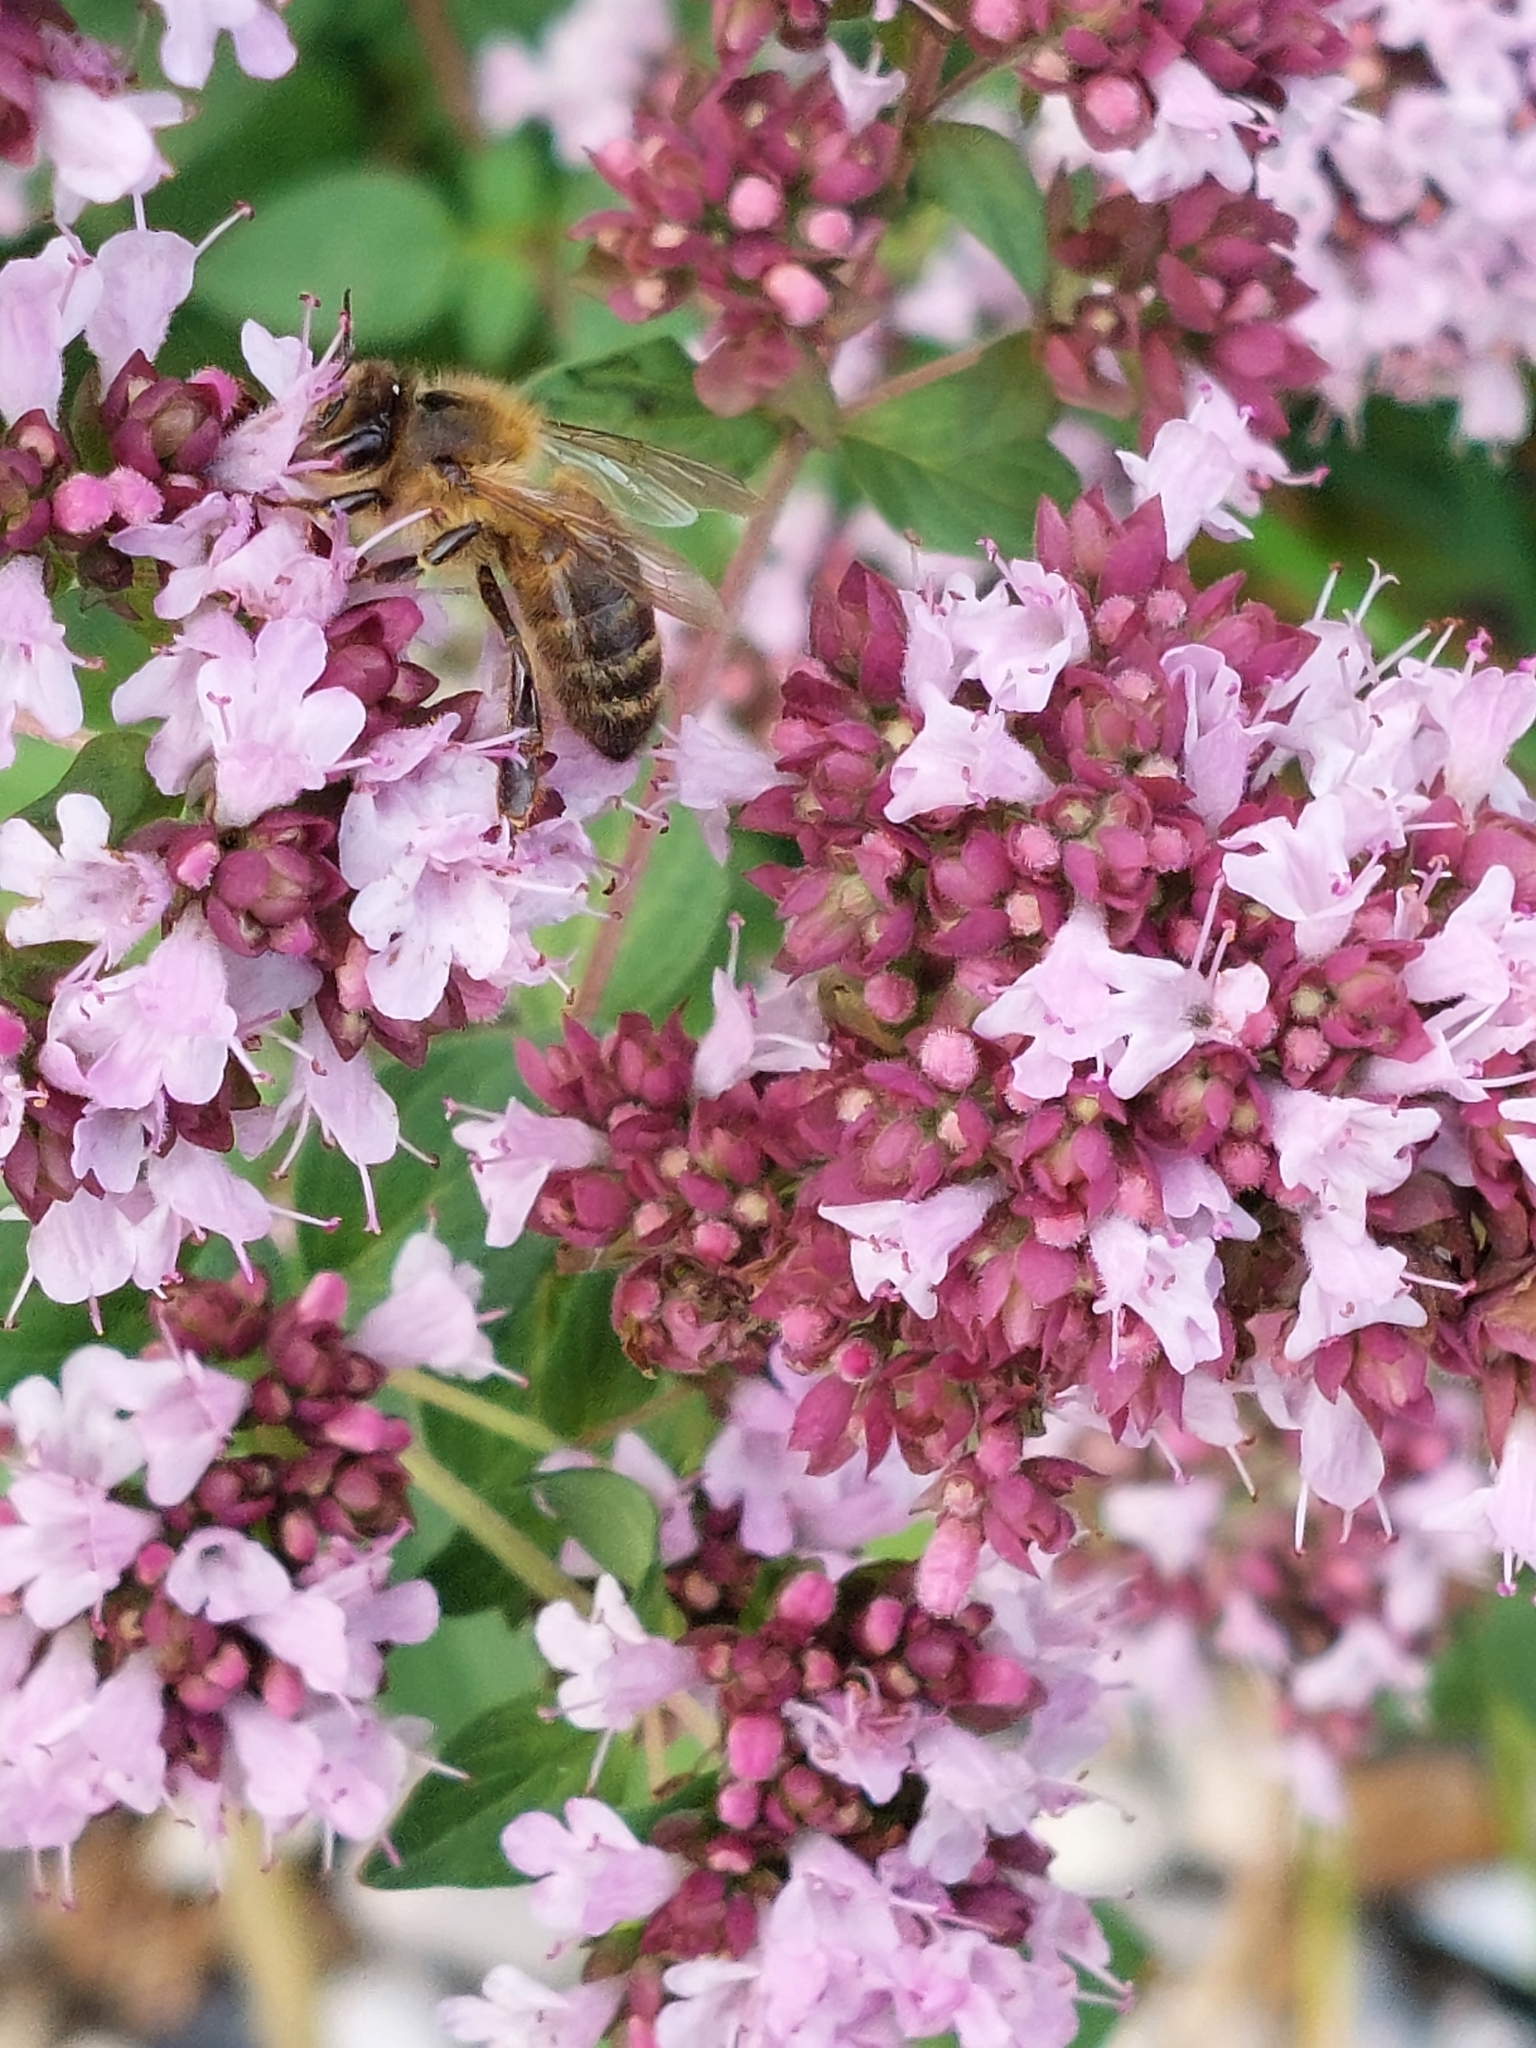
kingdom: Animalia
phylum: Arthropoda
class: Insecta
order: Hymenoptera
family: Apidae
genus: Apis
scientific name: Apis mellifera
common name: Honey bee
